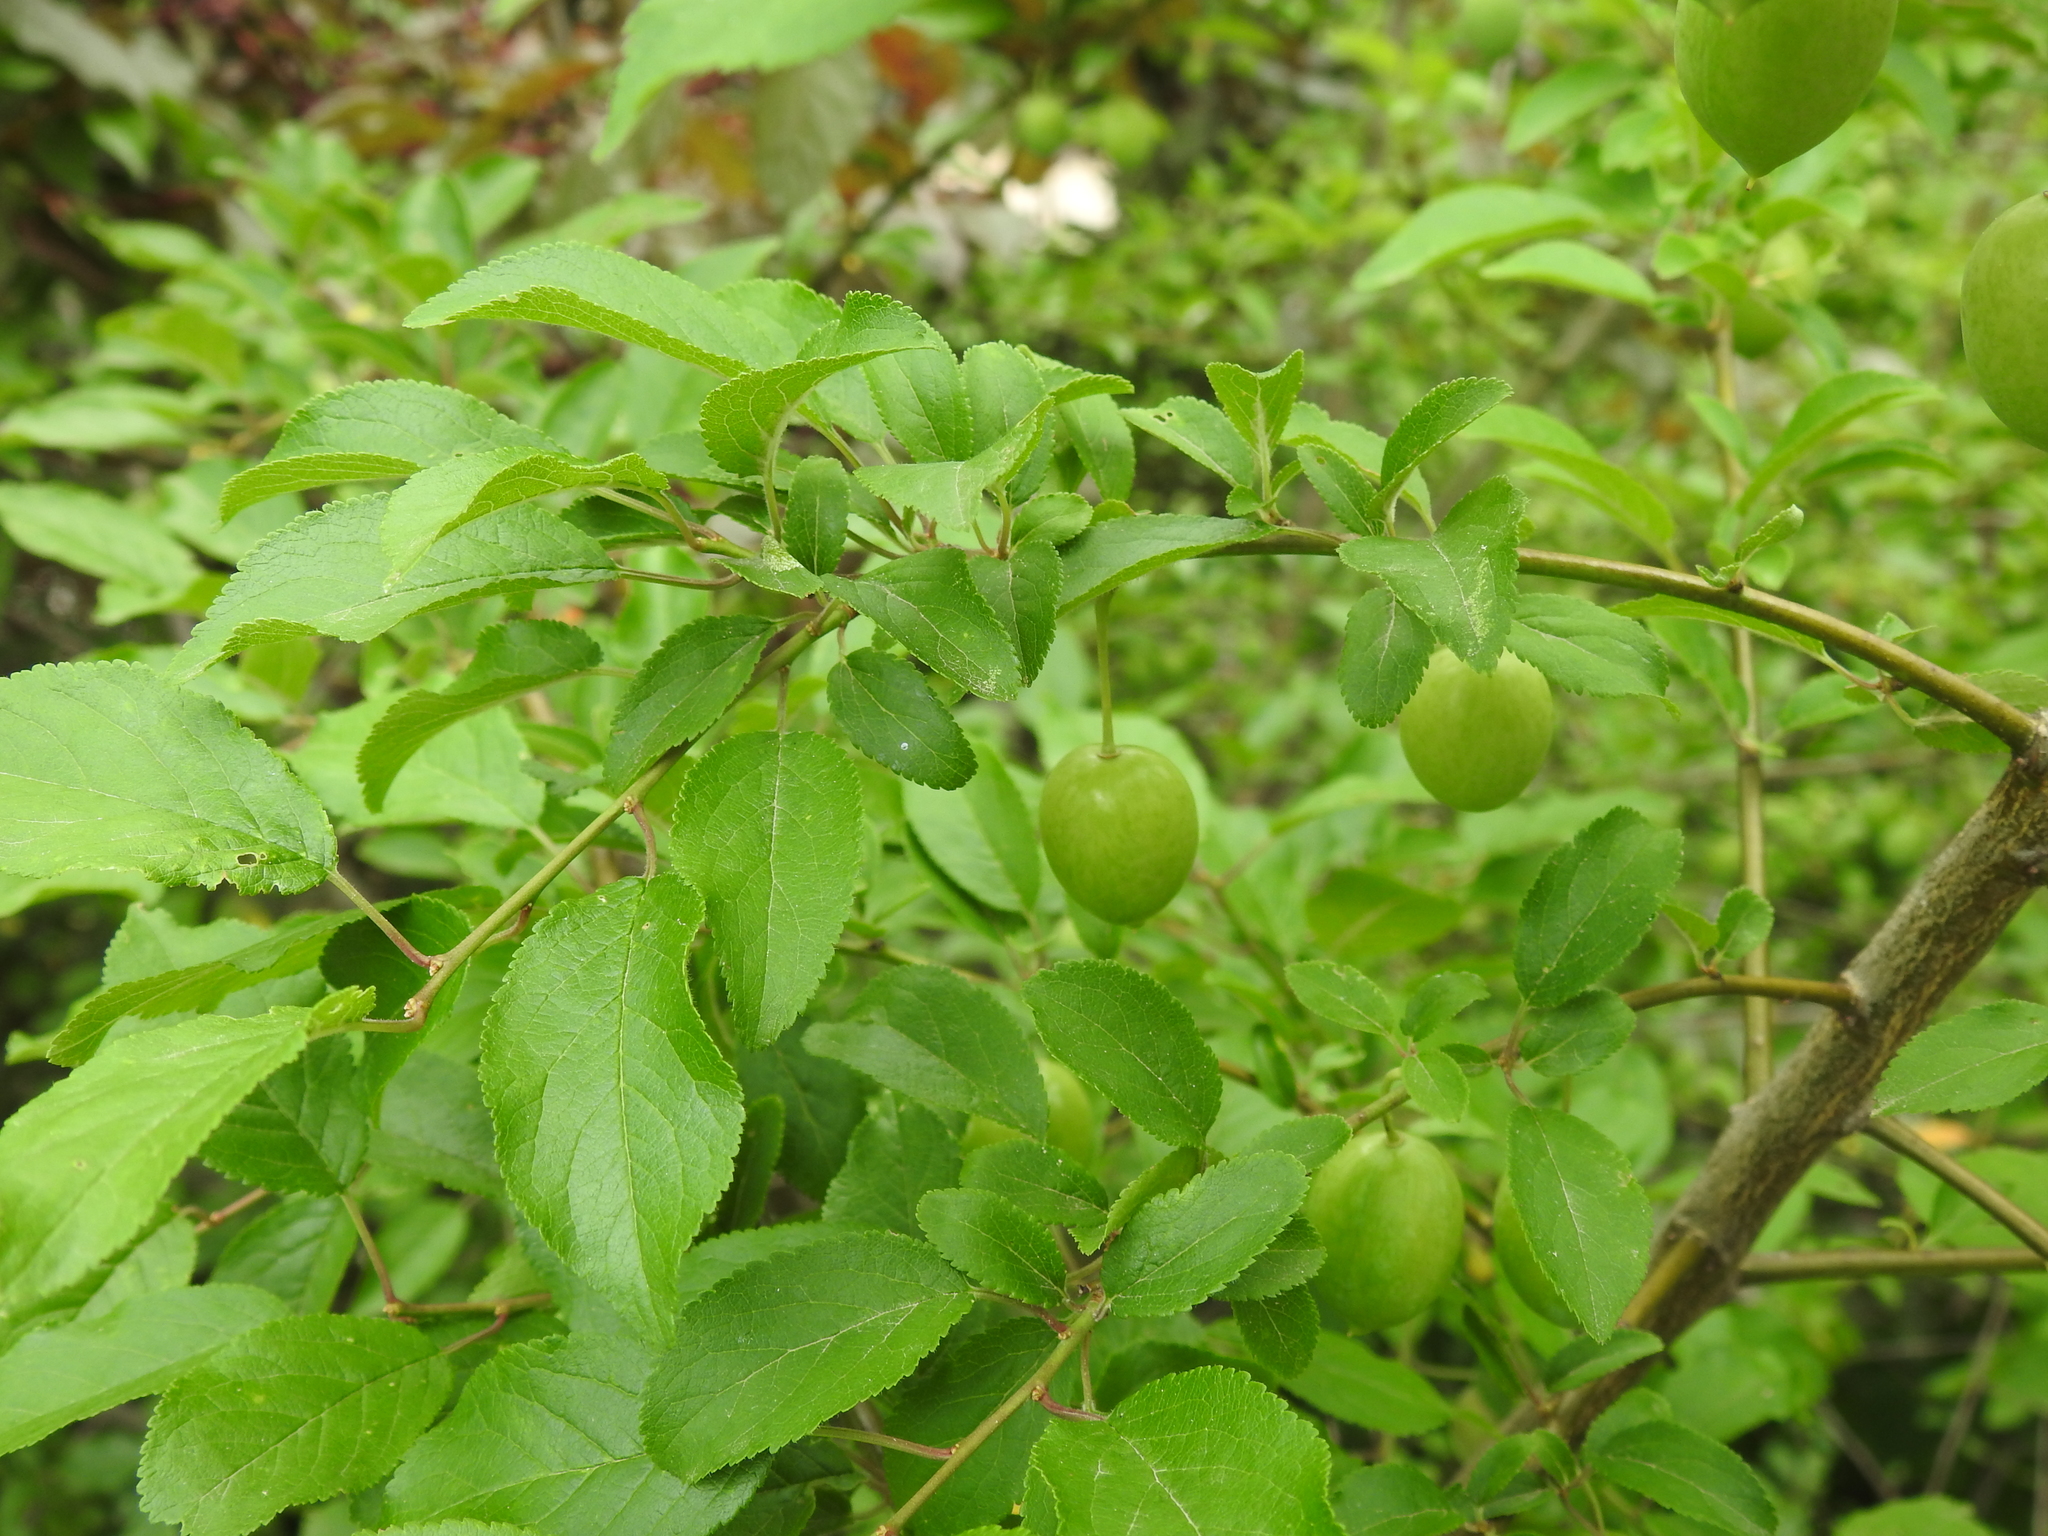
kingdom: Plantae
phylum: Tracheophyta
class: Magnoliopsida
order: Rosales
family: Rosaceae
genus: Prunus
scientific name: Prunus cerasifera
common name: Cherry plum
